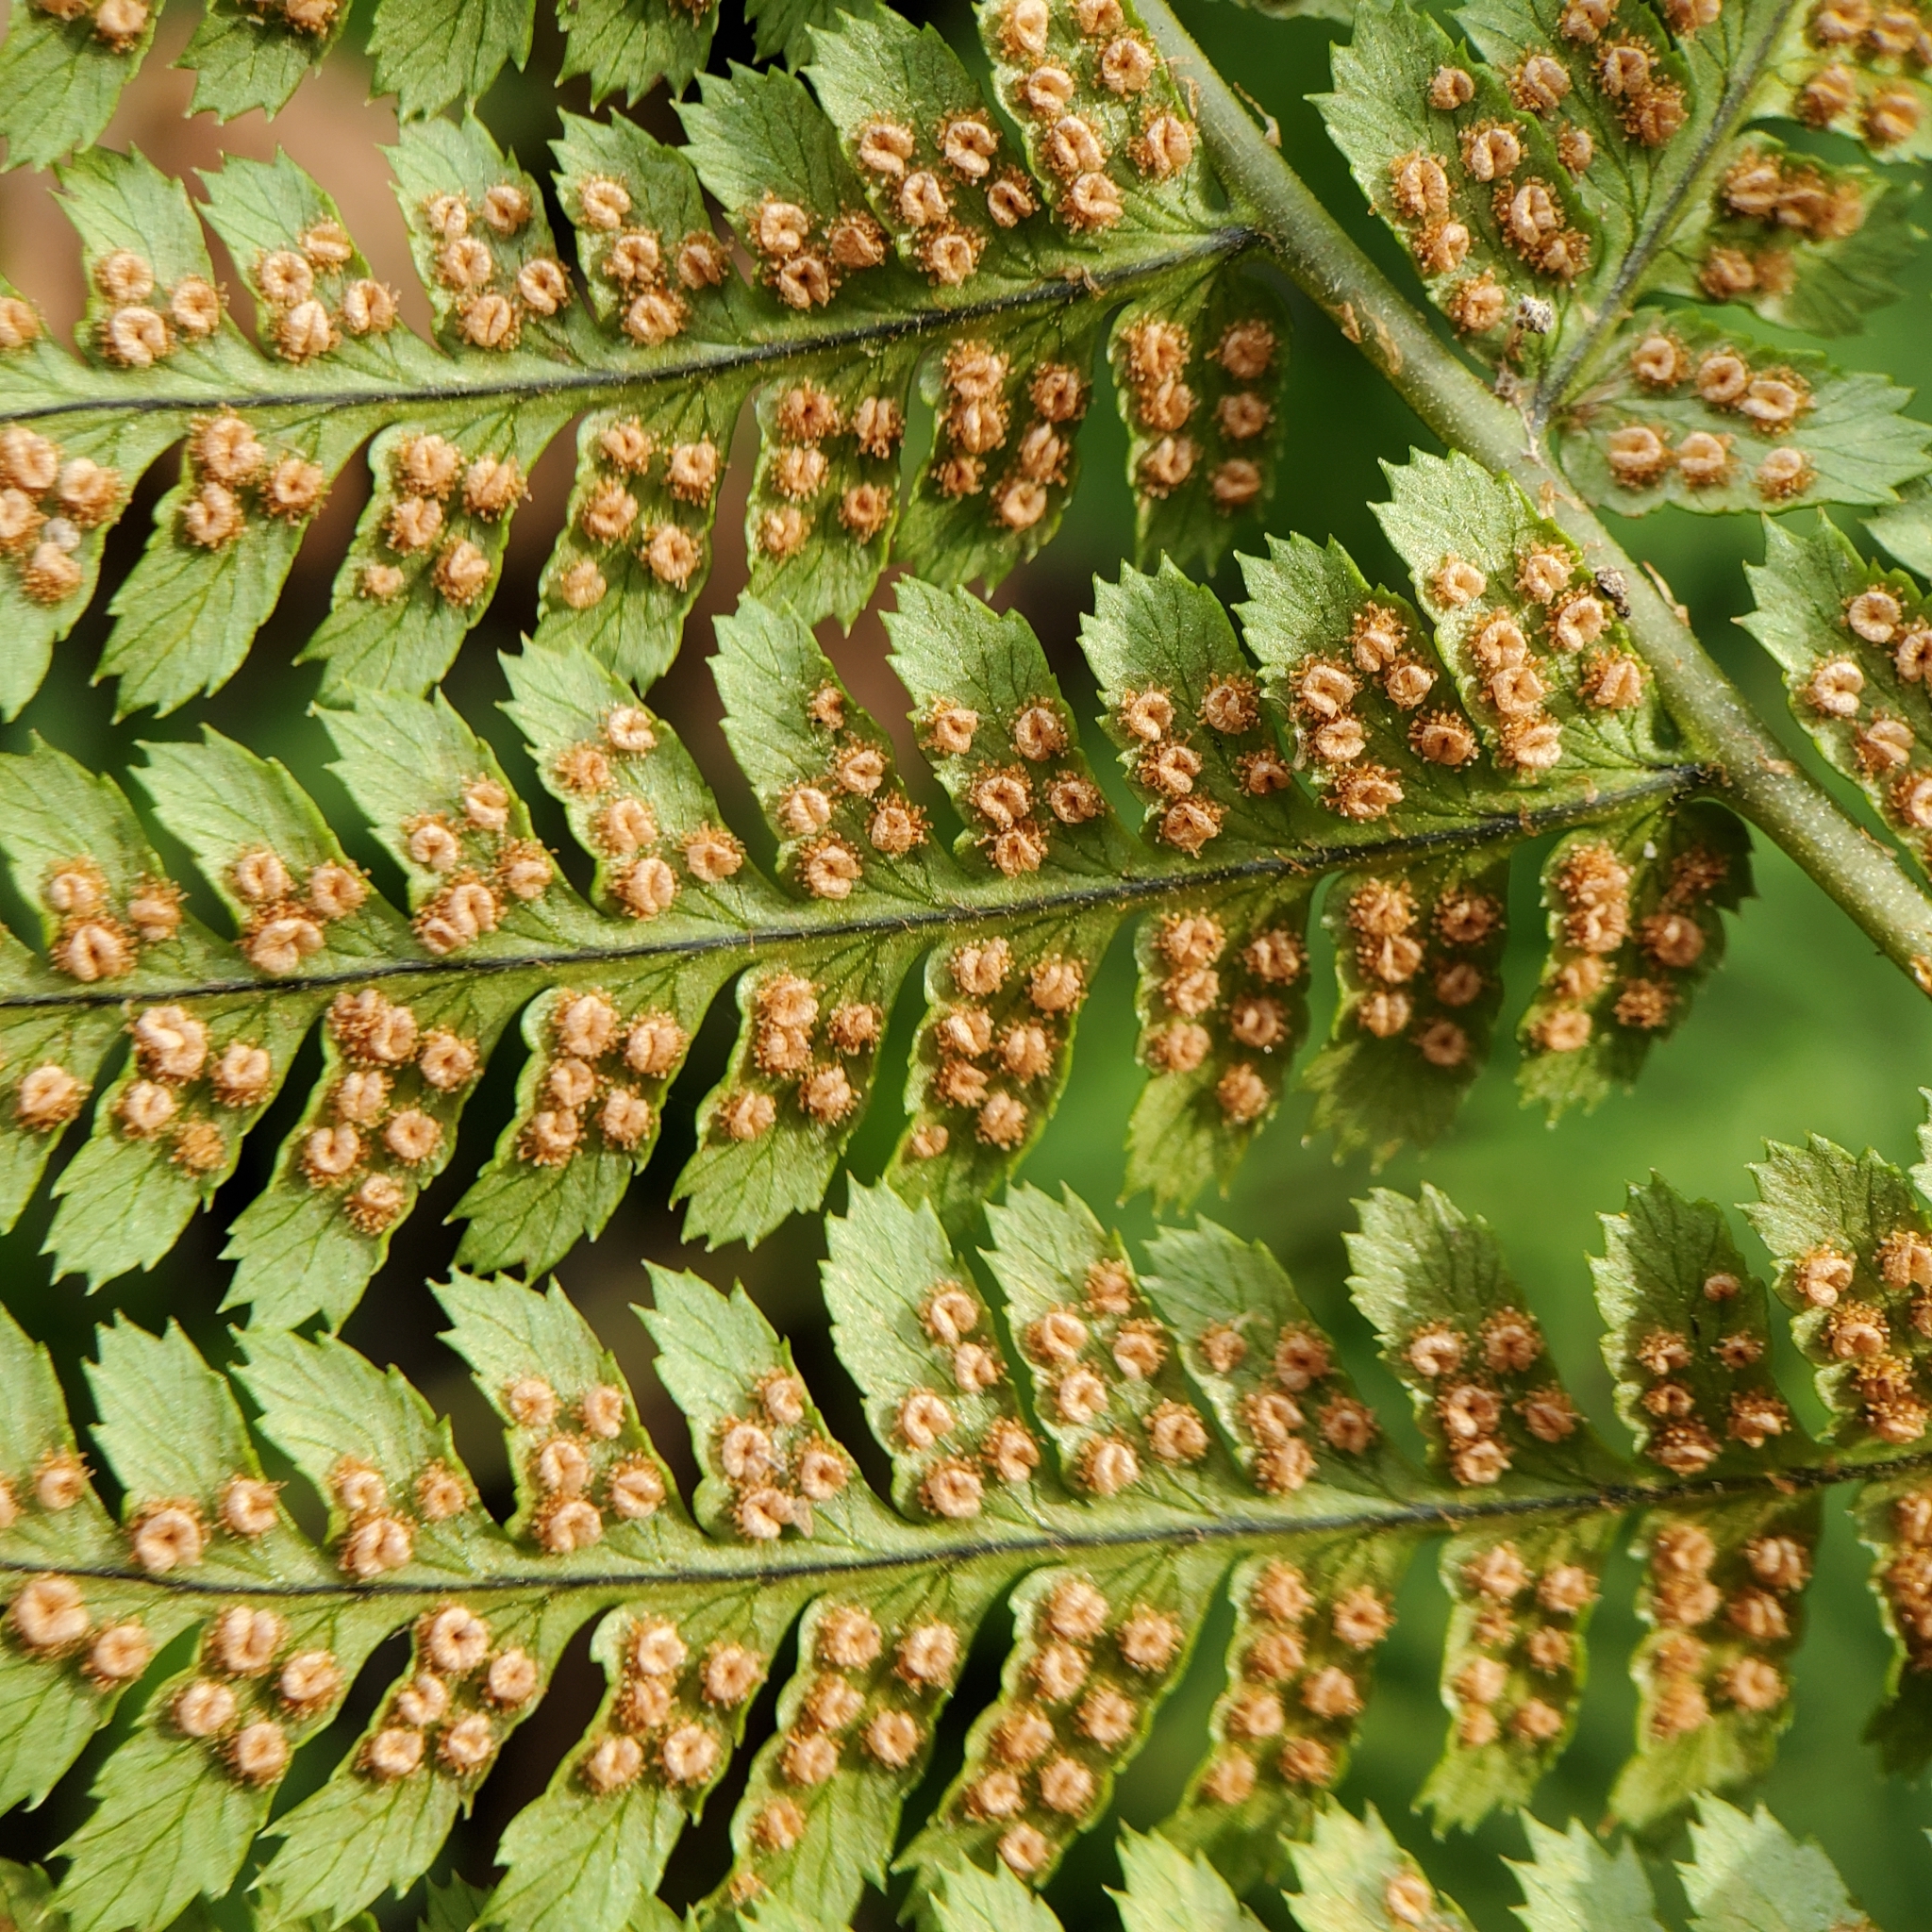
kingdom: Plantae
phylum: Tracheophyta
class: Polypodiopsida
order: Polypodiales
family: Dryopteridaceae
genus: Dryopteris
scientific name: Dryopteris arguta
